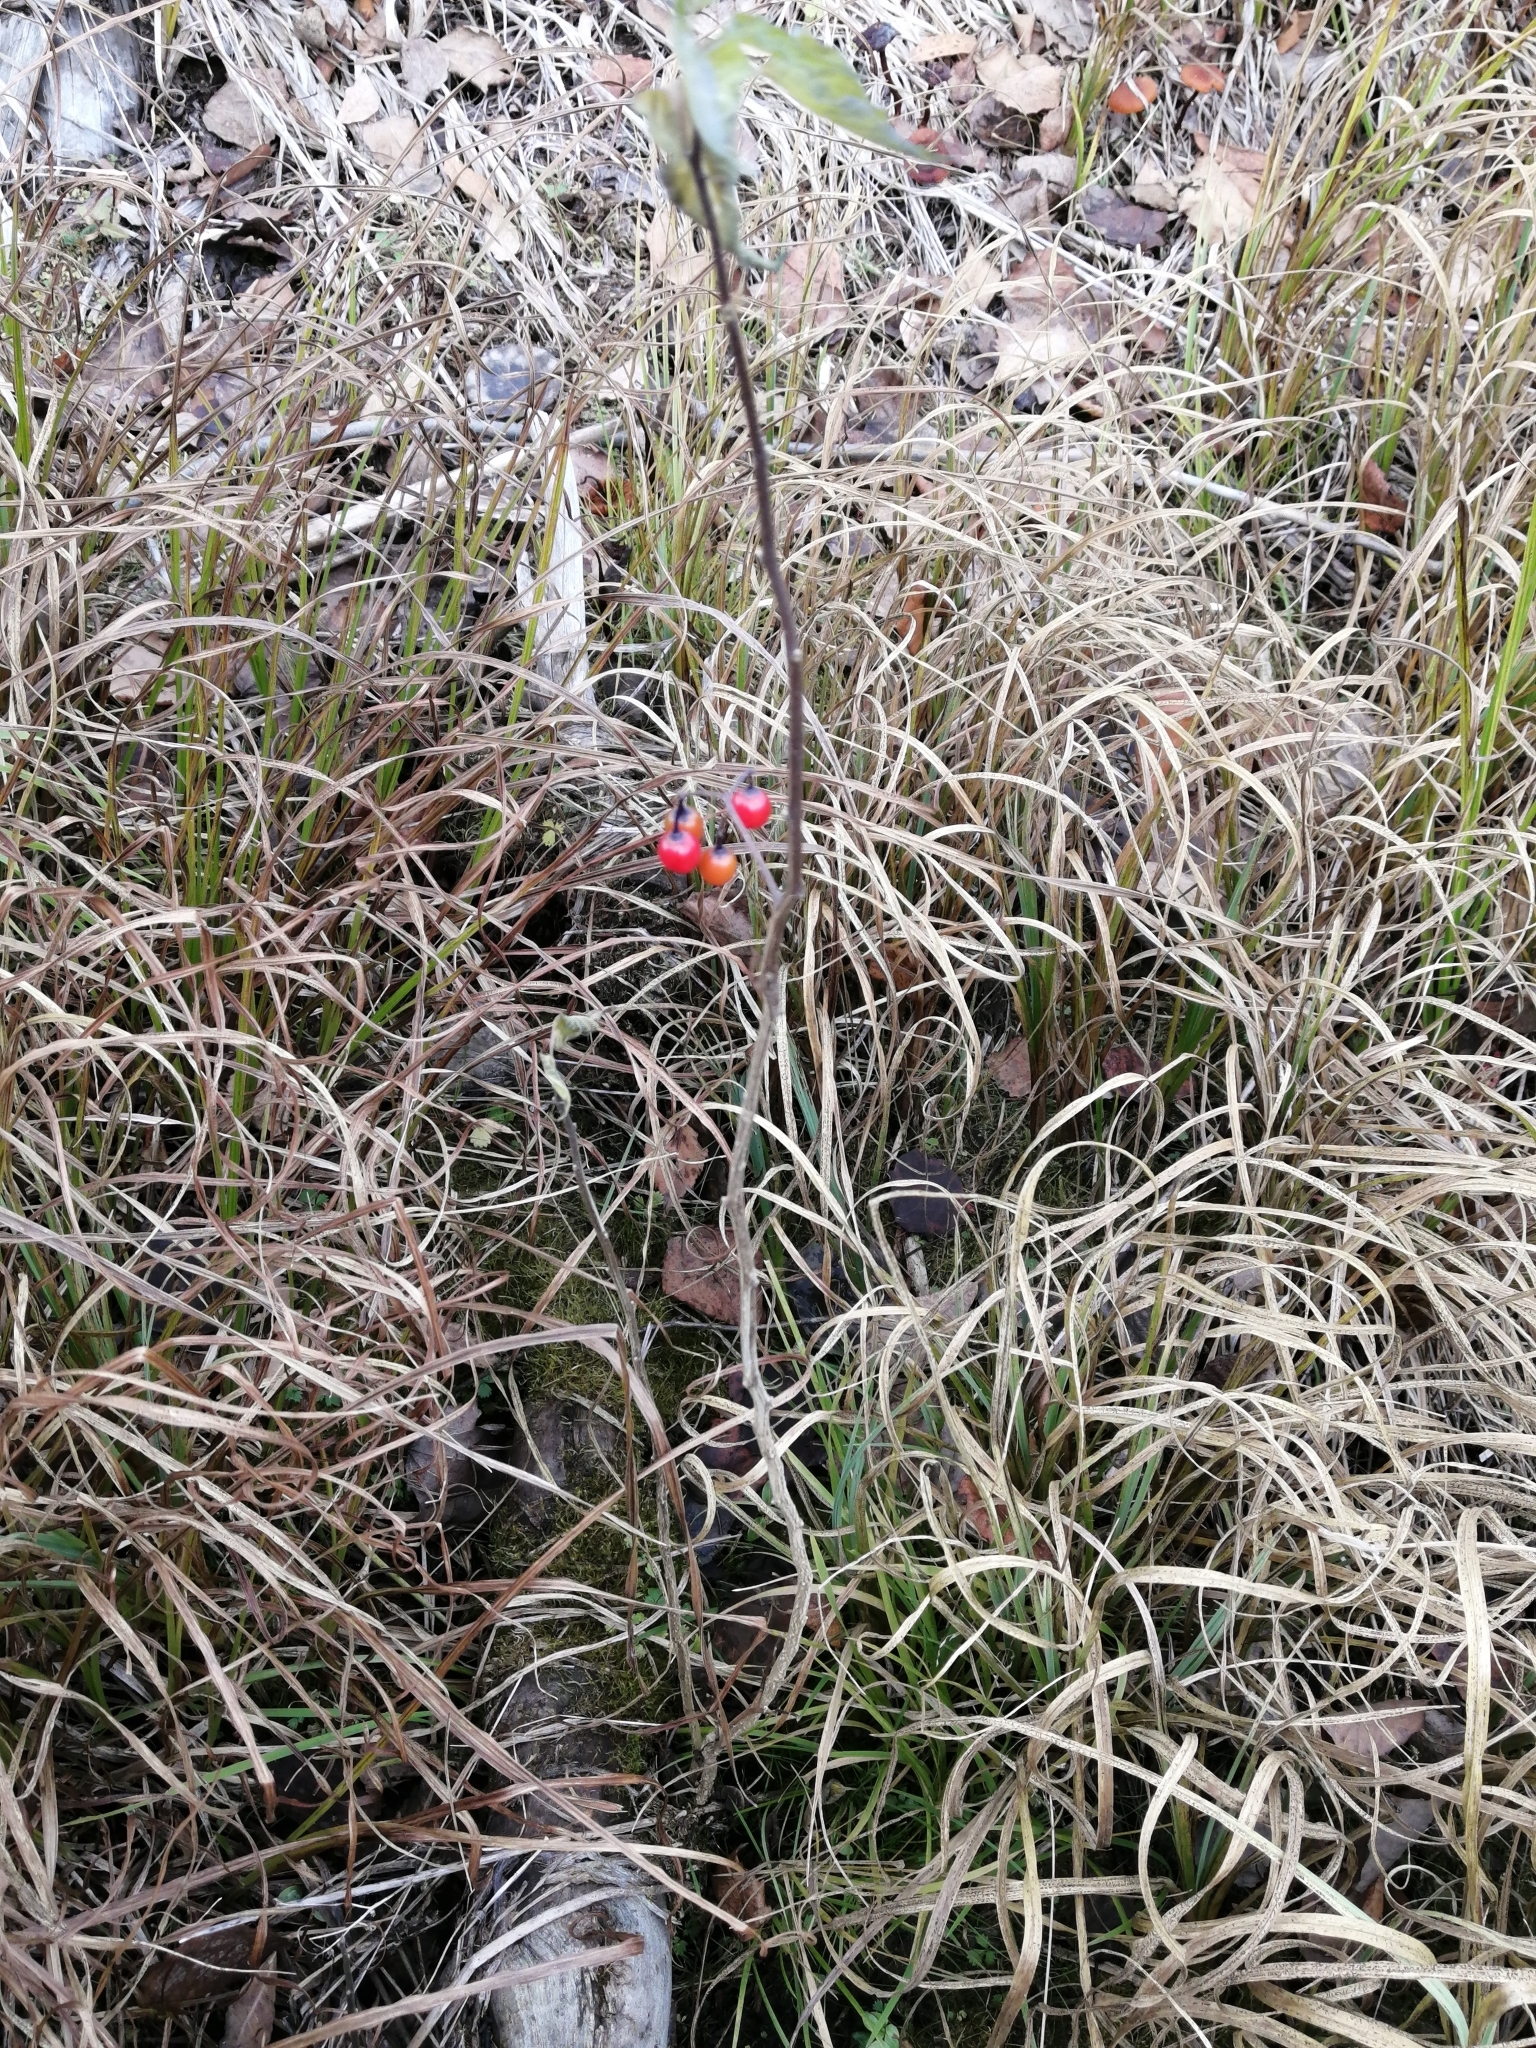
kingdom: Plantae
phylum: Tracheophyta
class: Magnoliopsida
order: Solanales
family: Solanaceae
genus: Solanum
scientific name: Solanum dulcamara
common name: Climbing nightshade
